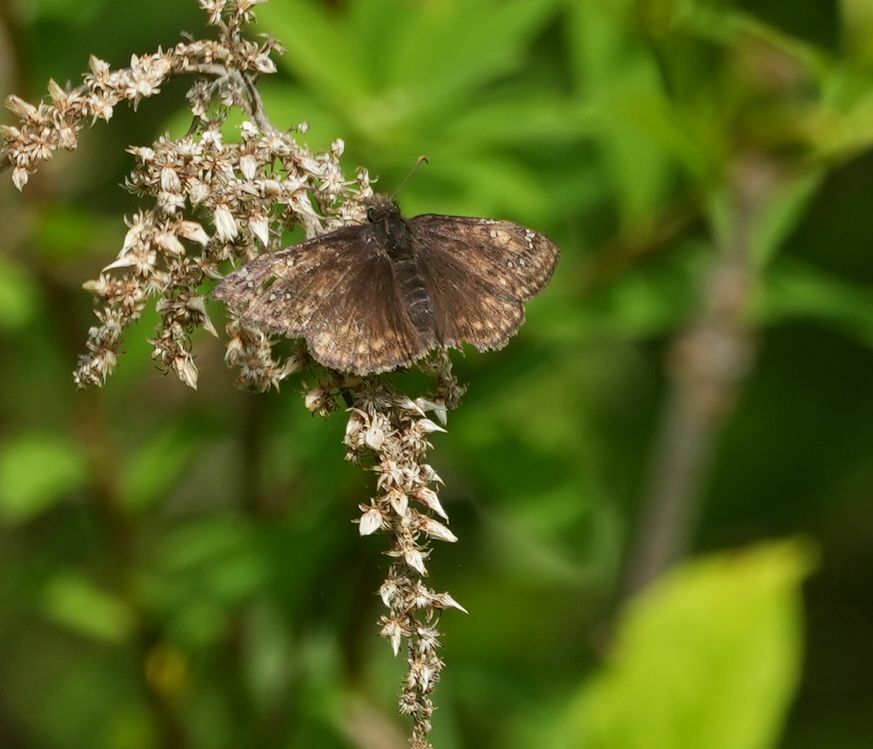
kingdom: Animalia
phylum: Arthropoda
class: Insecta
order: Lepidoptera
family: Hesperiidae
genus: Erynnis
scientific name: Erynnis juvenalis
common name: Juvenal's duskywing
